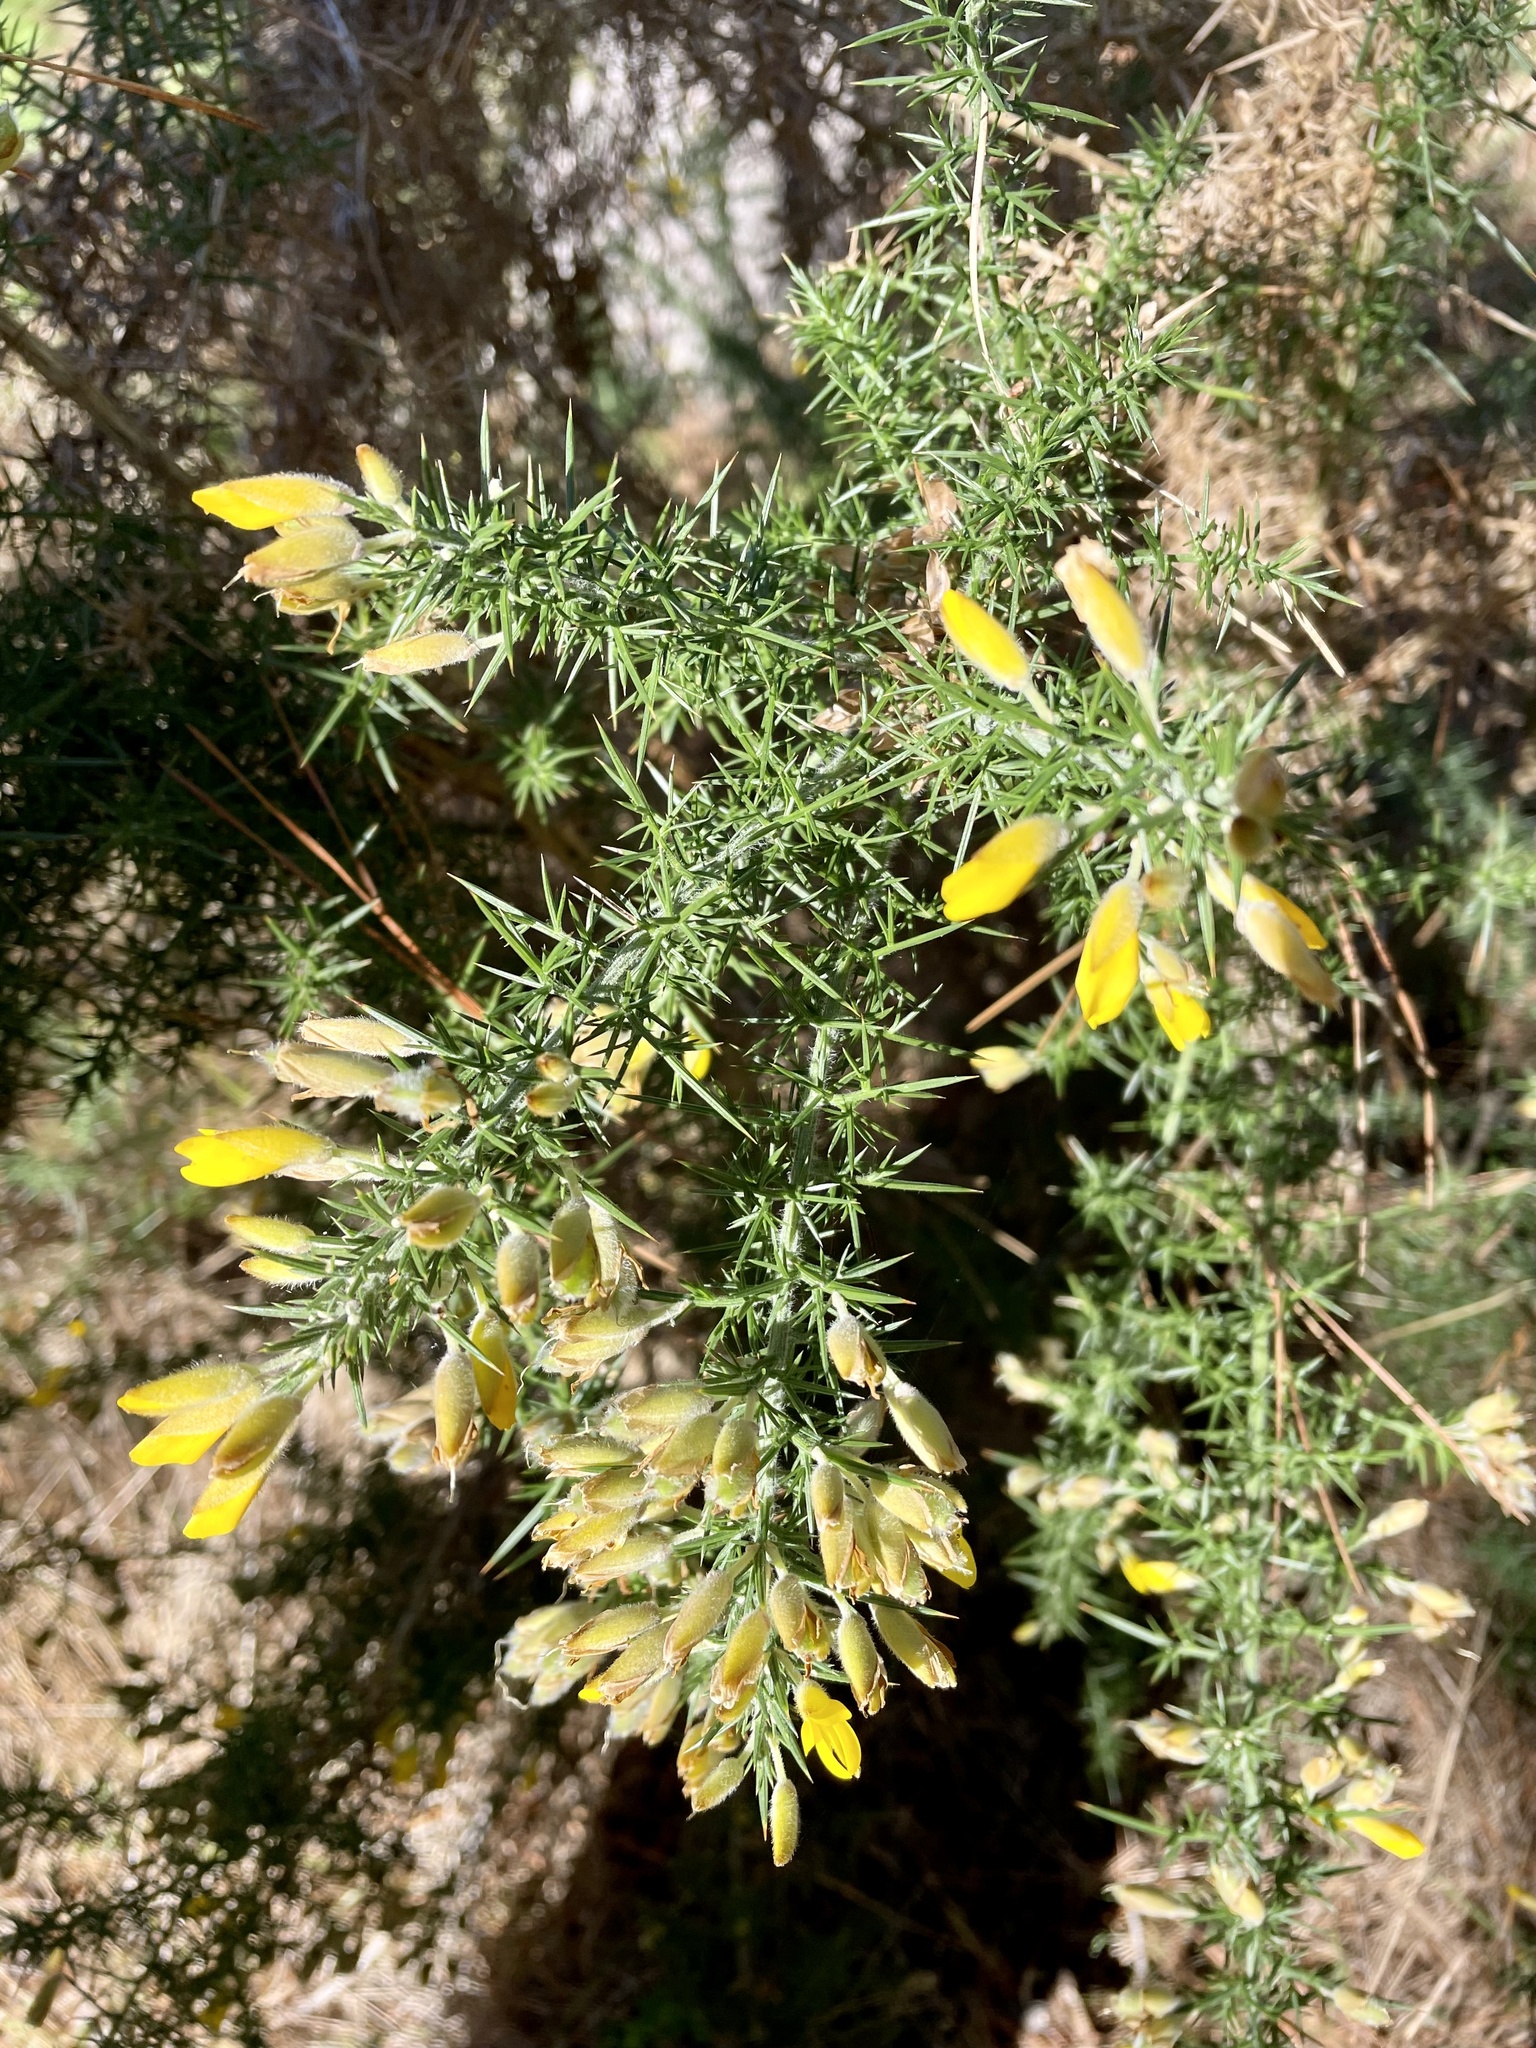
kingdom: Plantae
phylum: Tracheophyta
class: Magnoliopsida
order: Fabales
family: Fabaceae
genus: Ulex
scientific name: Ulex europaeus
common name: Common gorse
